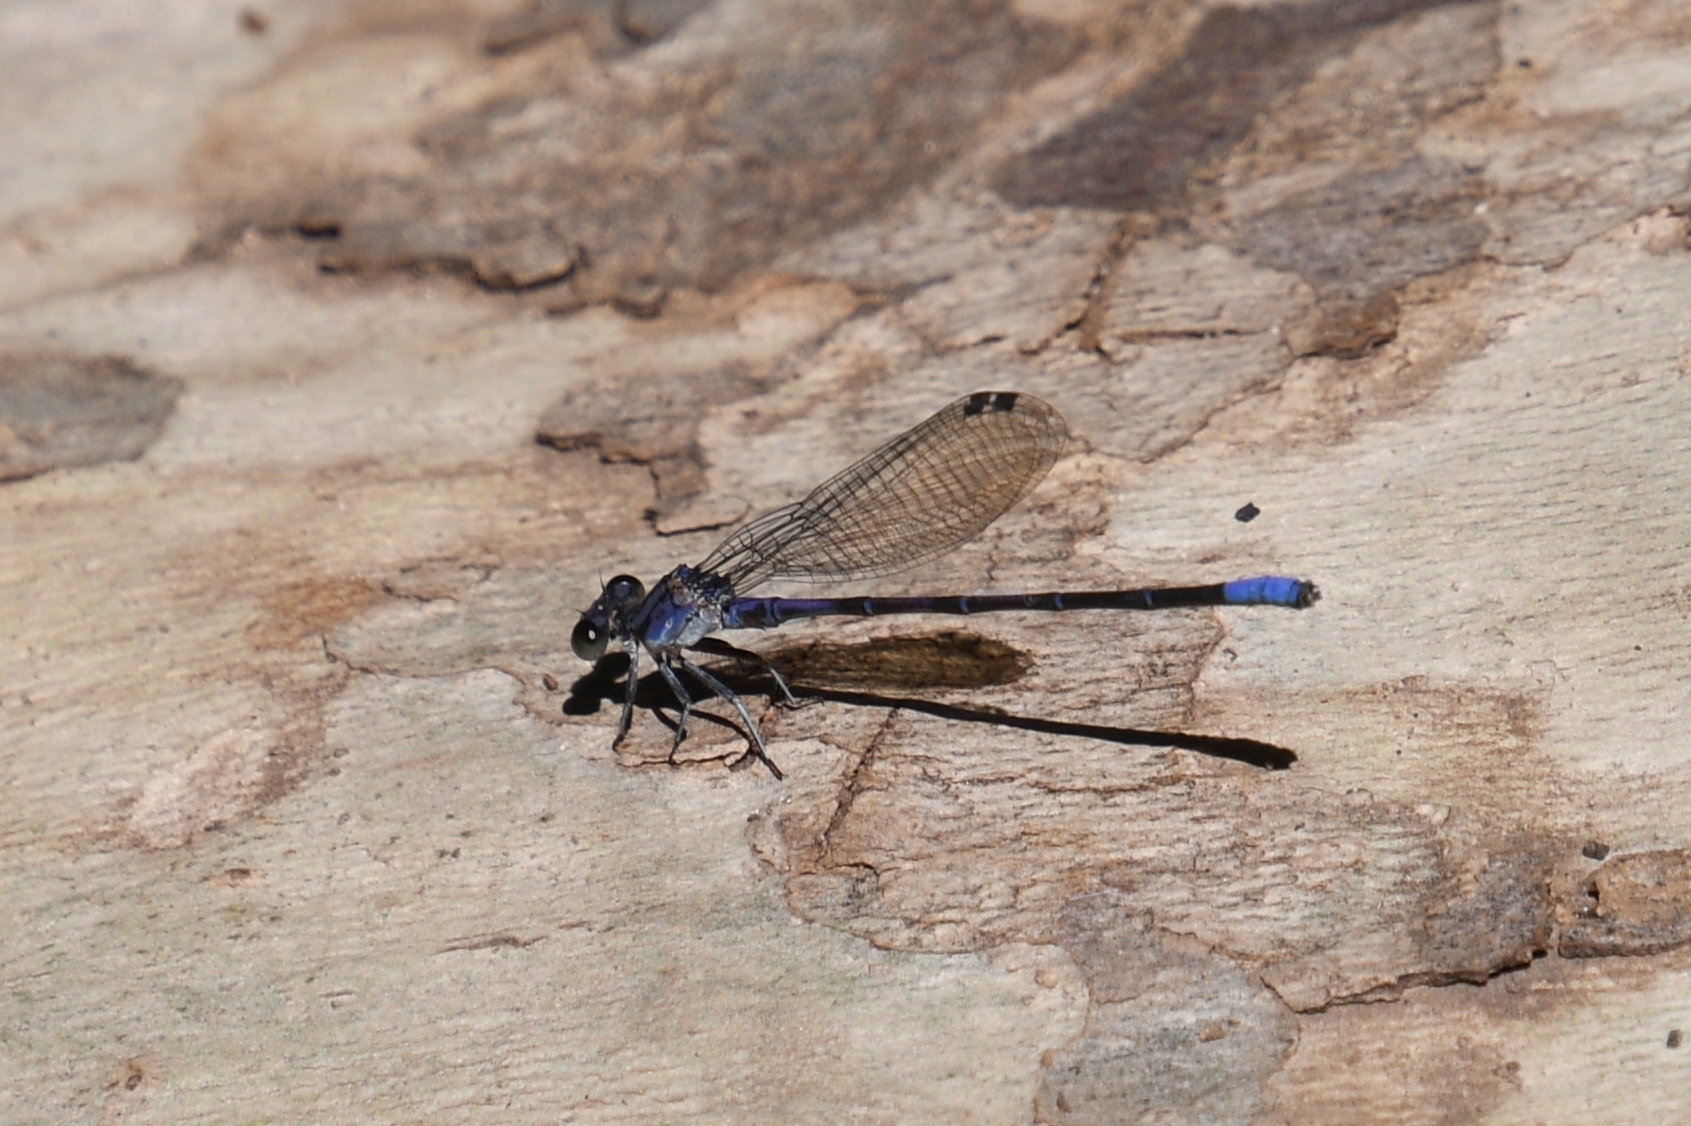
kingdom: Animalia
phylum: Arthropoda
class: Insecta
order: Odonata
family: Coenagrionidae
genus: Argia
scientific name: Argia funebris
